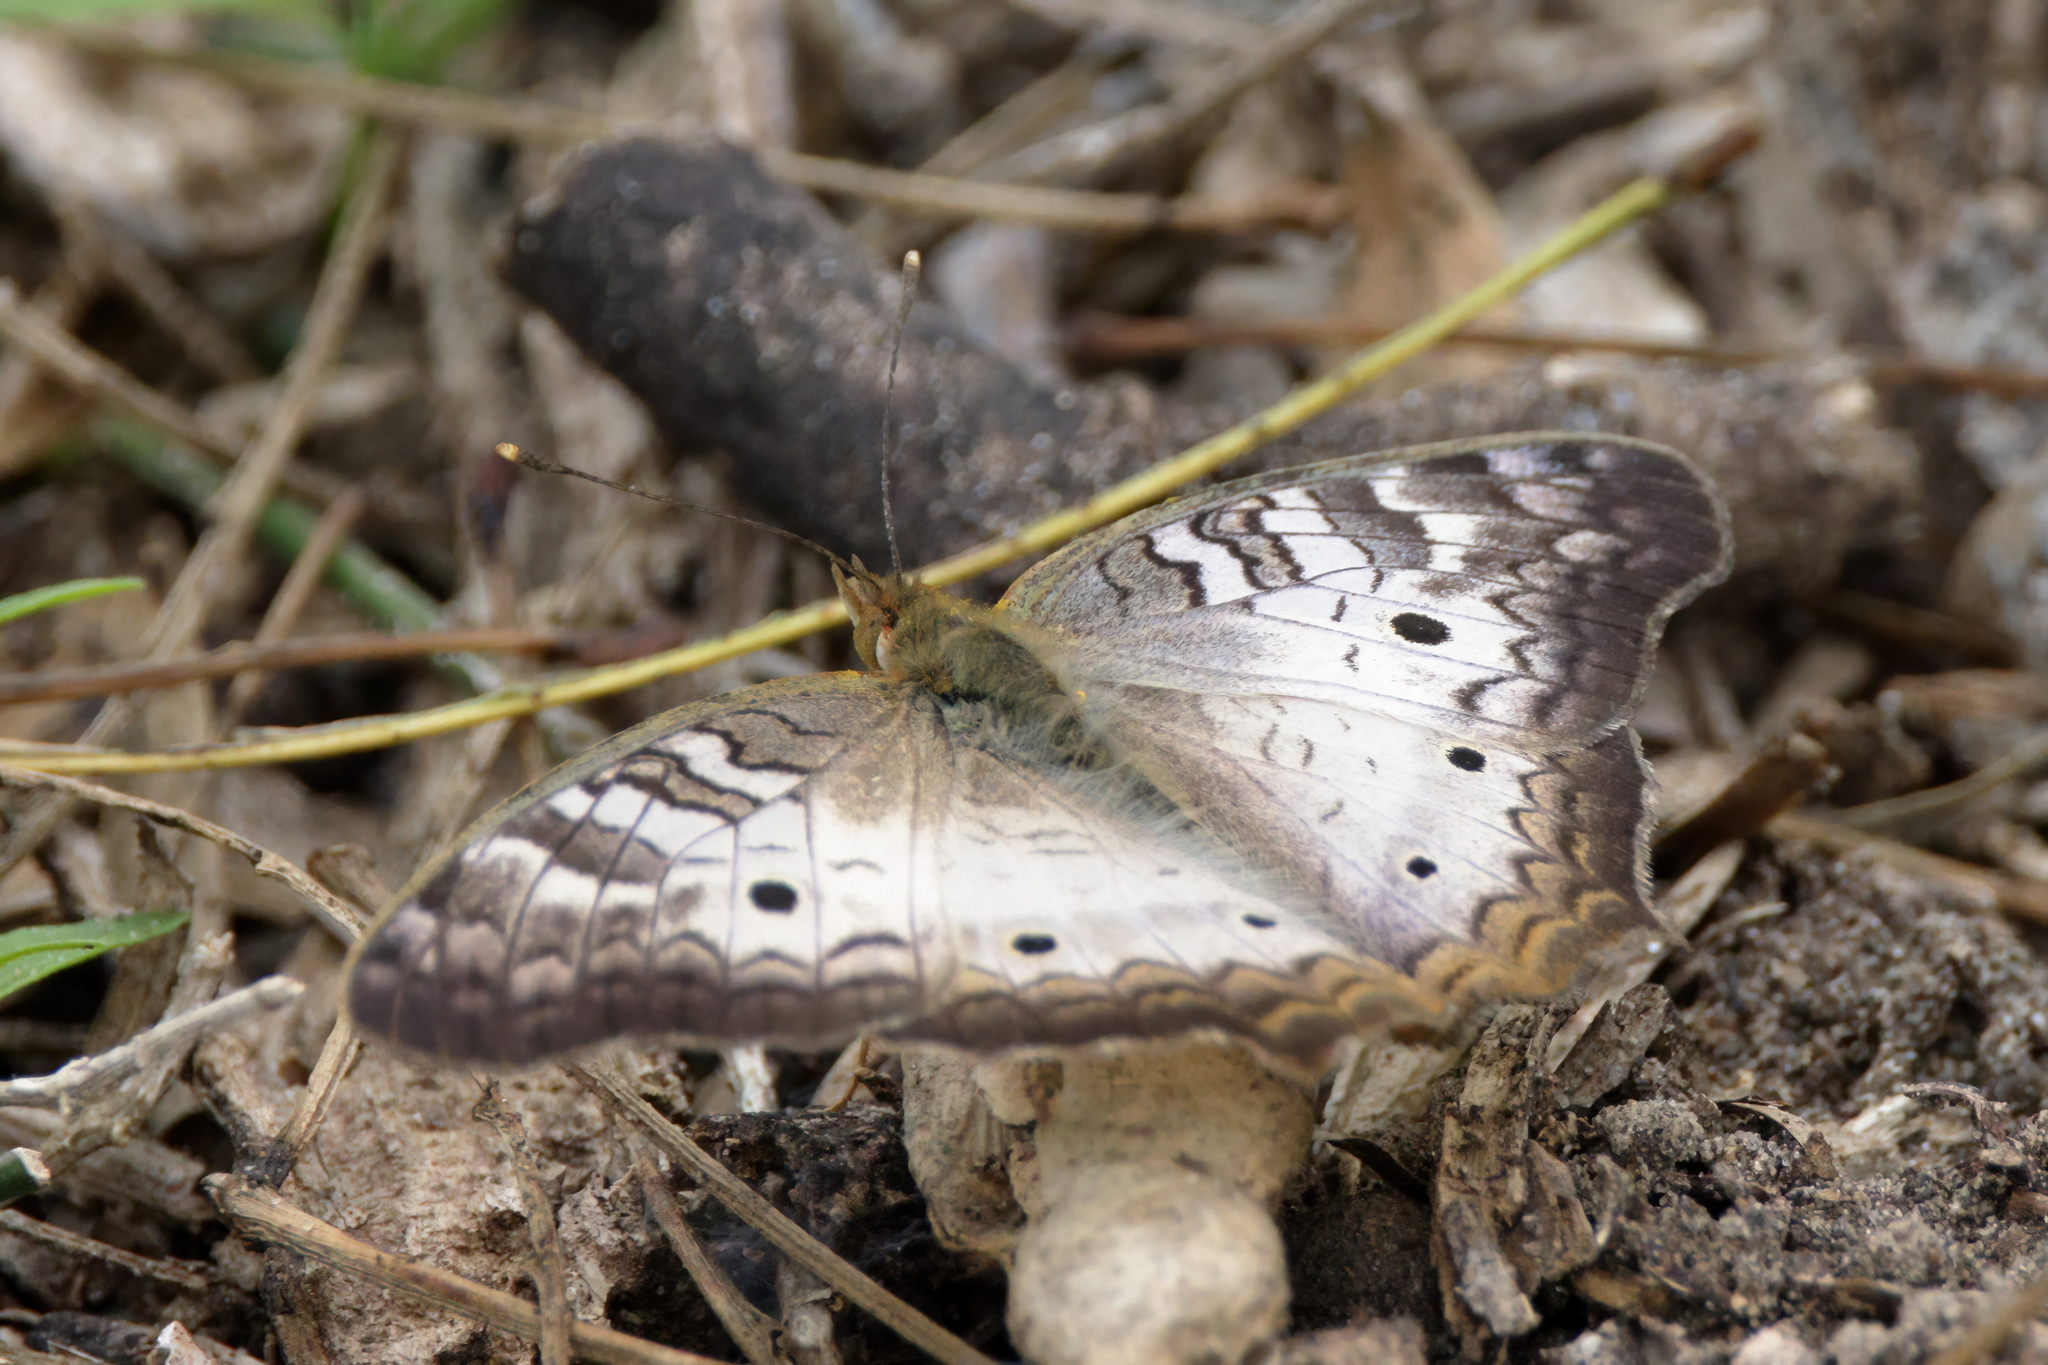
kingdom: Animalia
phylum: Arthropoda
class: Insecta
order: Lepidoptera
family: Nymphalidae
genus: Anartia
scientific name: Anartia jatrophae
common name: White peacock
